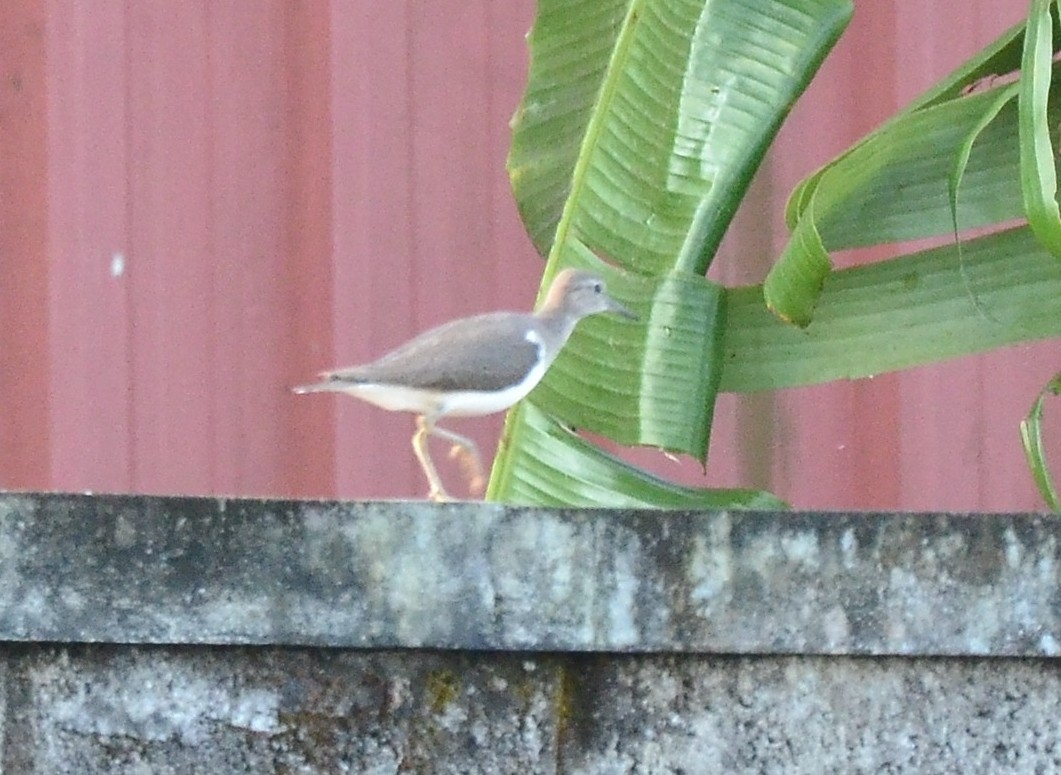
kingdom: Animalia
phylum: Chordata
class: Aves
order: Charadriiformes
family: Scolopacidae
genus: Actitis
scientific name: Actitis hypoleucos
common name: Common sandpiper
